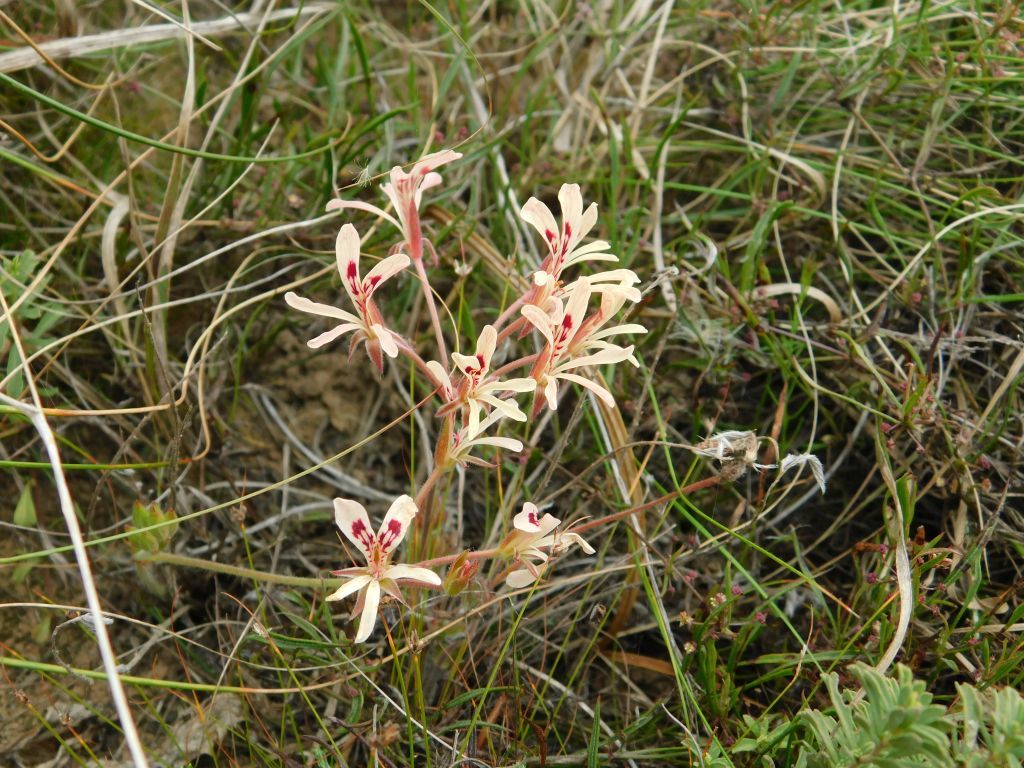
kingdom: Plantae
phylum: Tracheophyta
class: Magnoliopsida
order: Geraniales
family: Geraniaceae
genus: Pelargonium
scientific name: Pelargonium pinnatum
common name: Pinnated pelargonium
